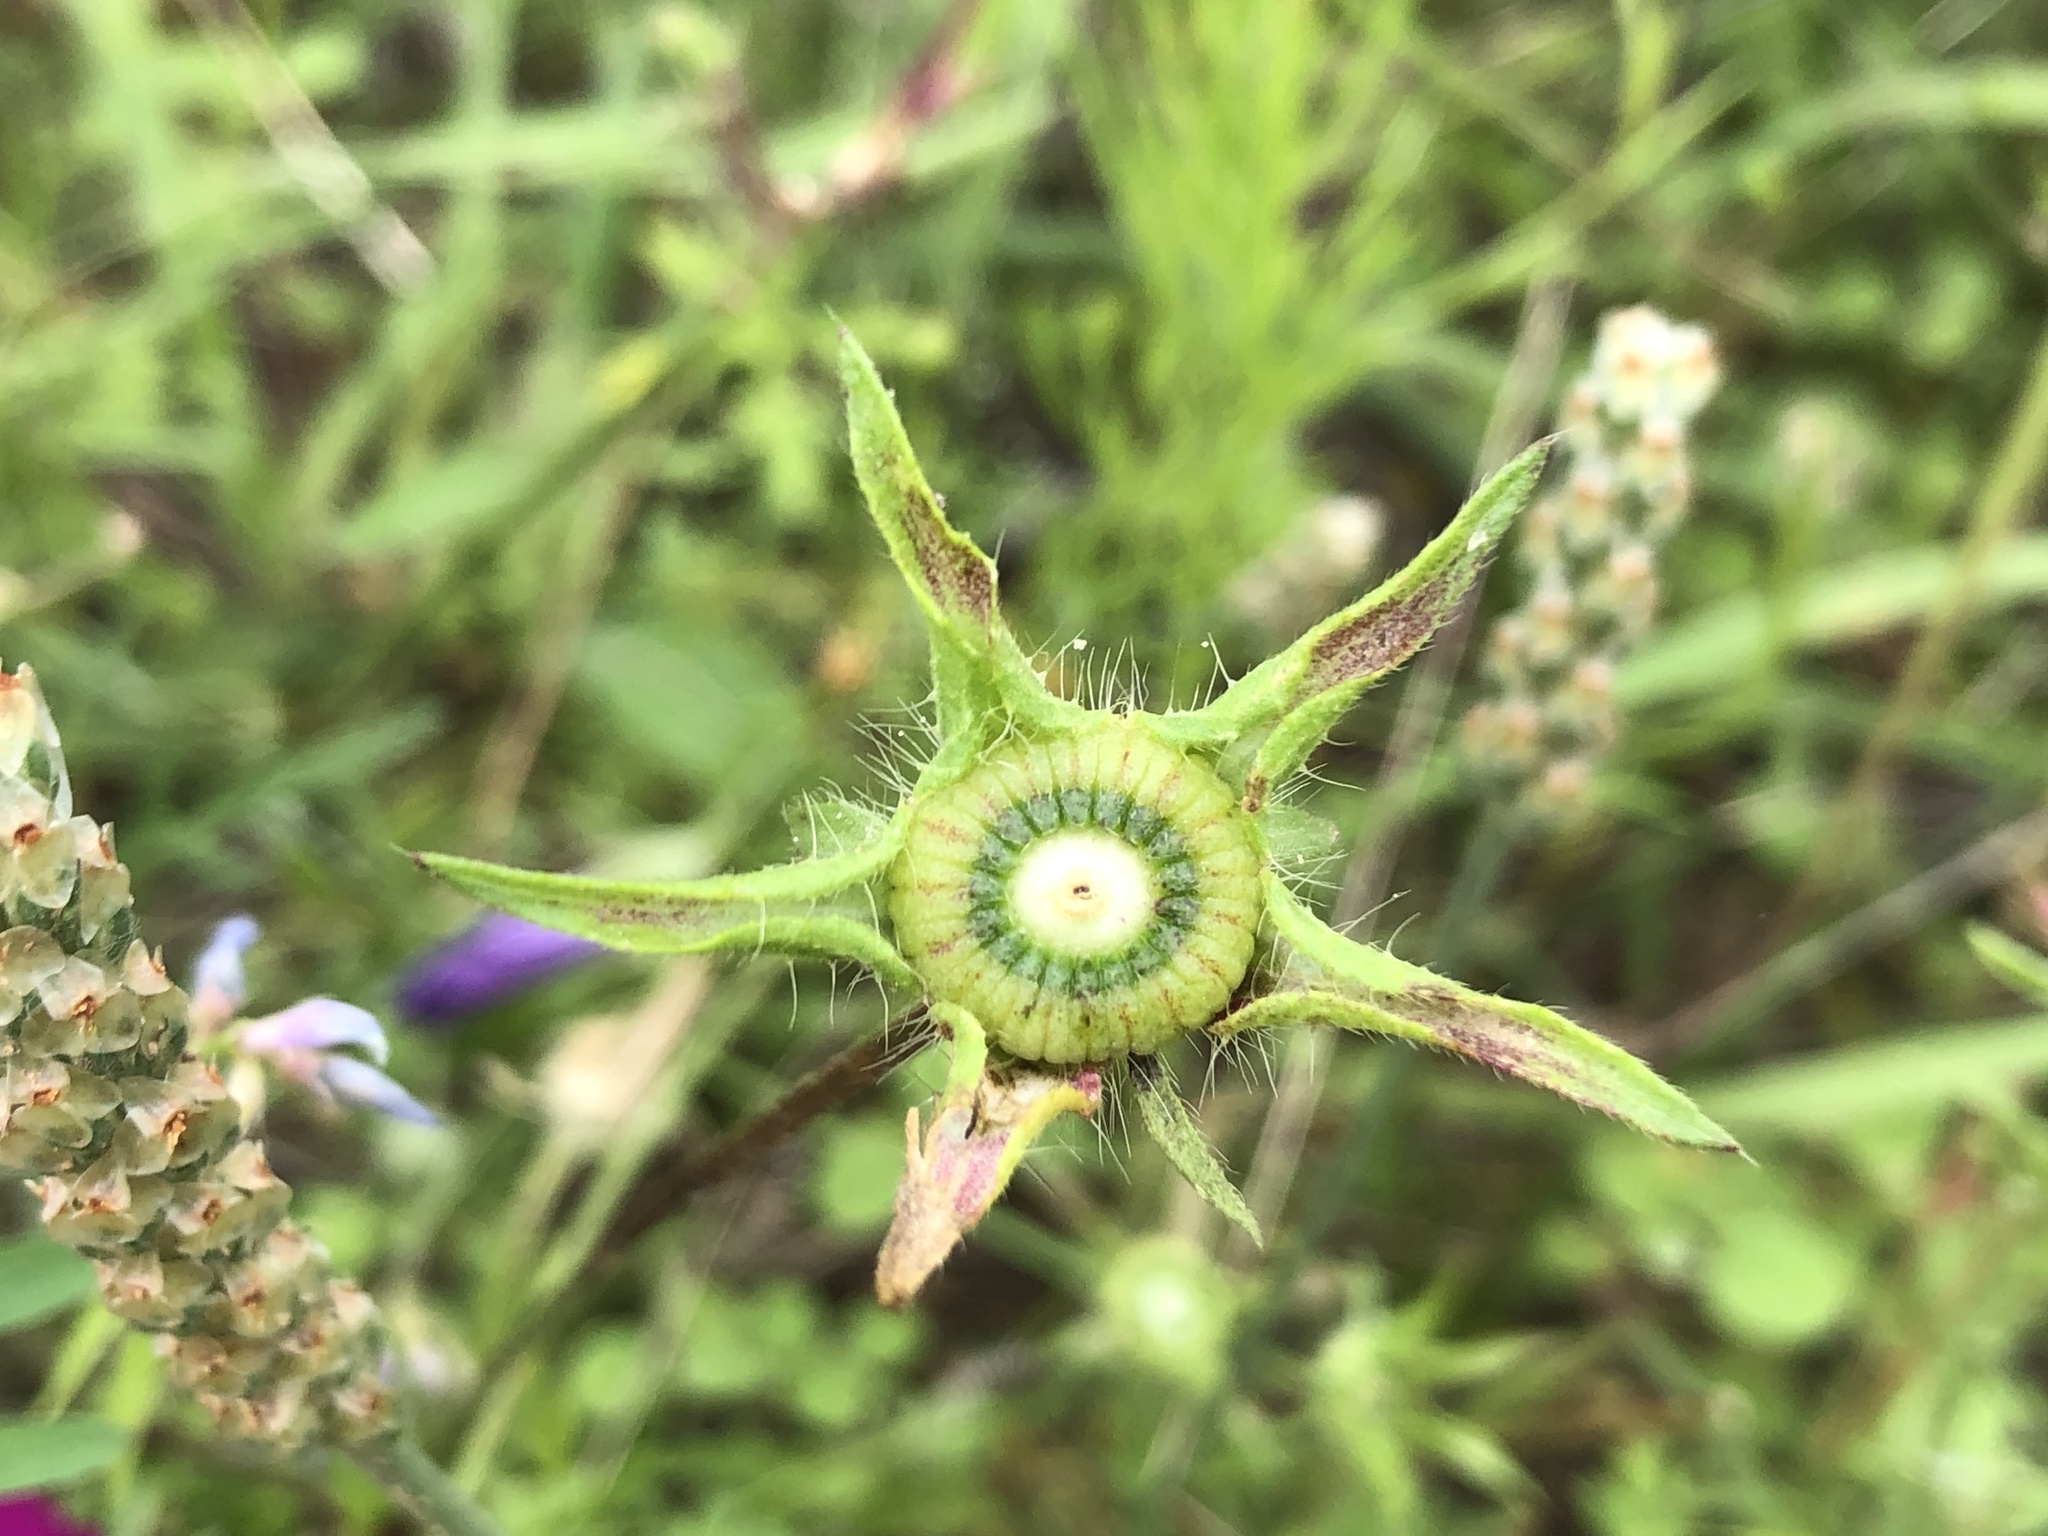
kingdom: Plantae
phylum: Tracheophyta
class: Magnoliopsida
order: Malvales
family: Malvaceae
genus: Callirhoe
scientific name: Callirhoe involucrata
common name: Purple poppy-mallow
